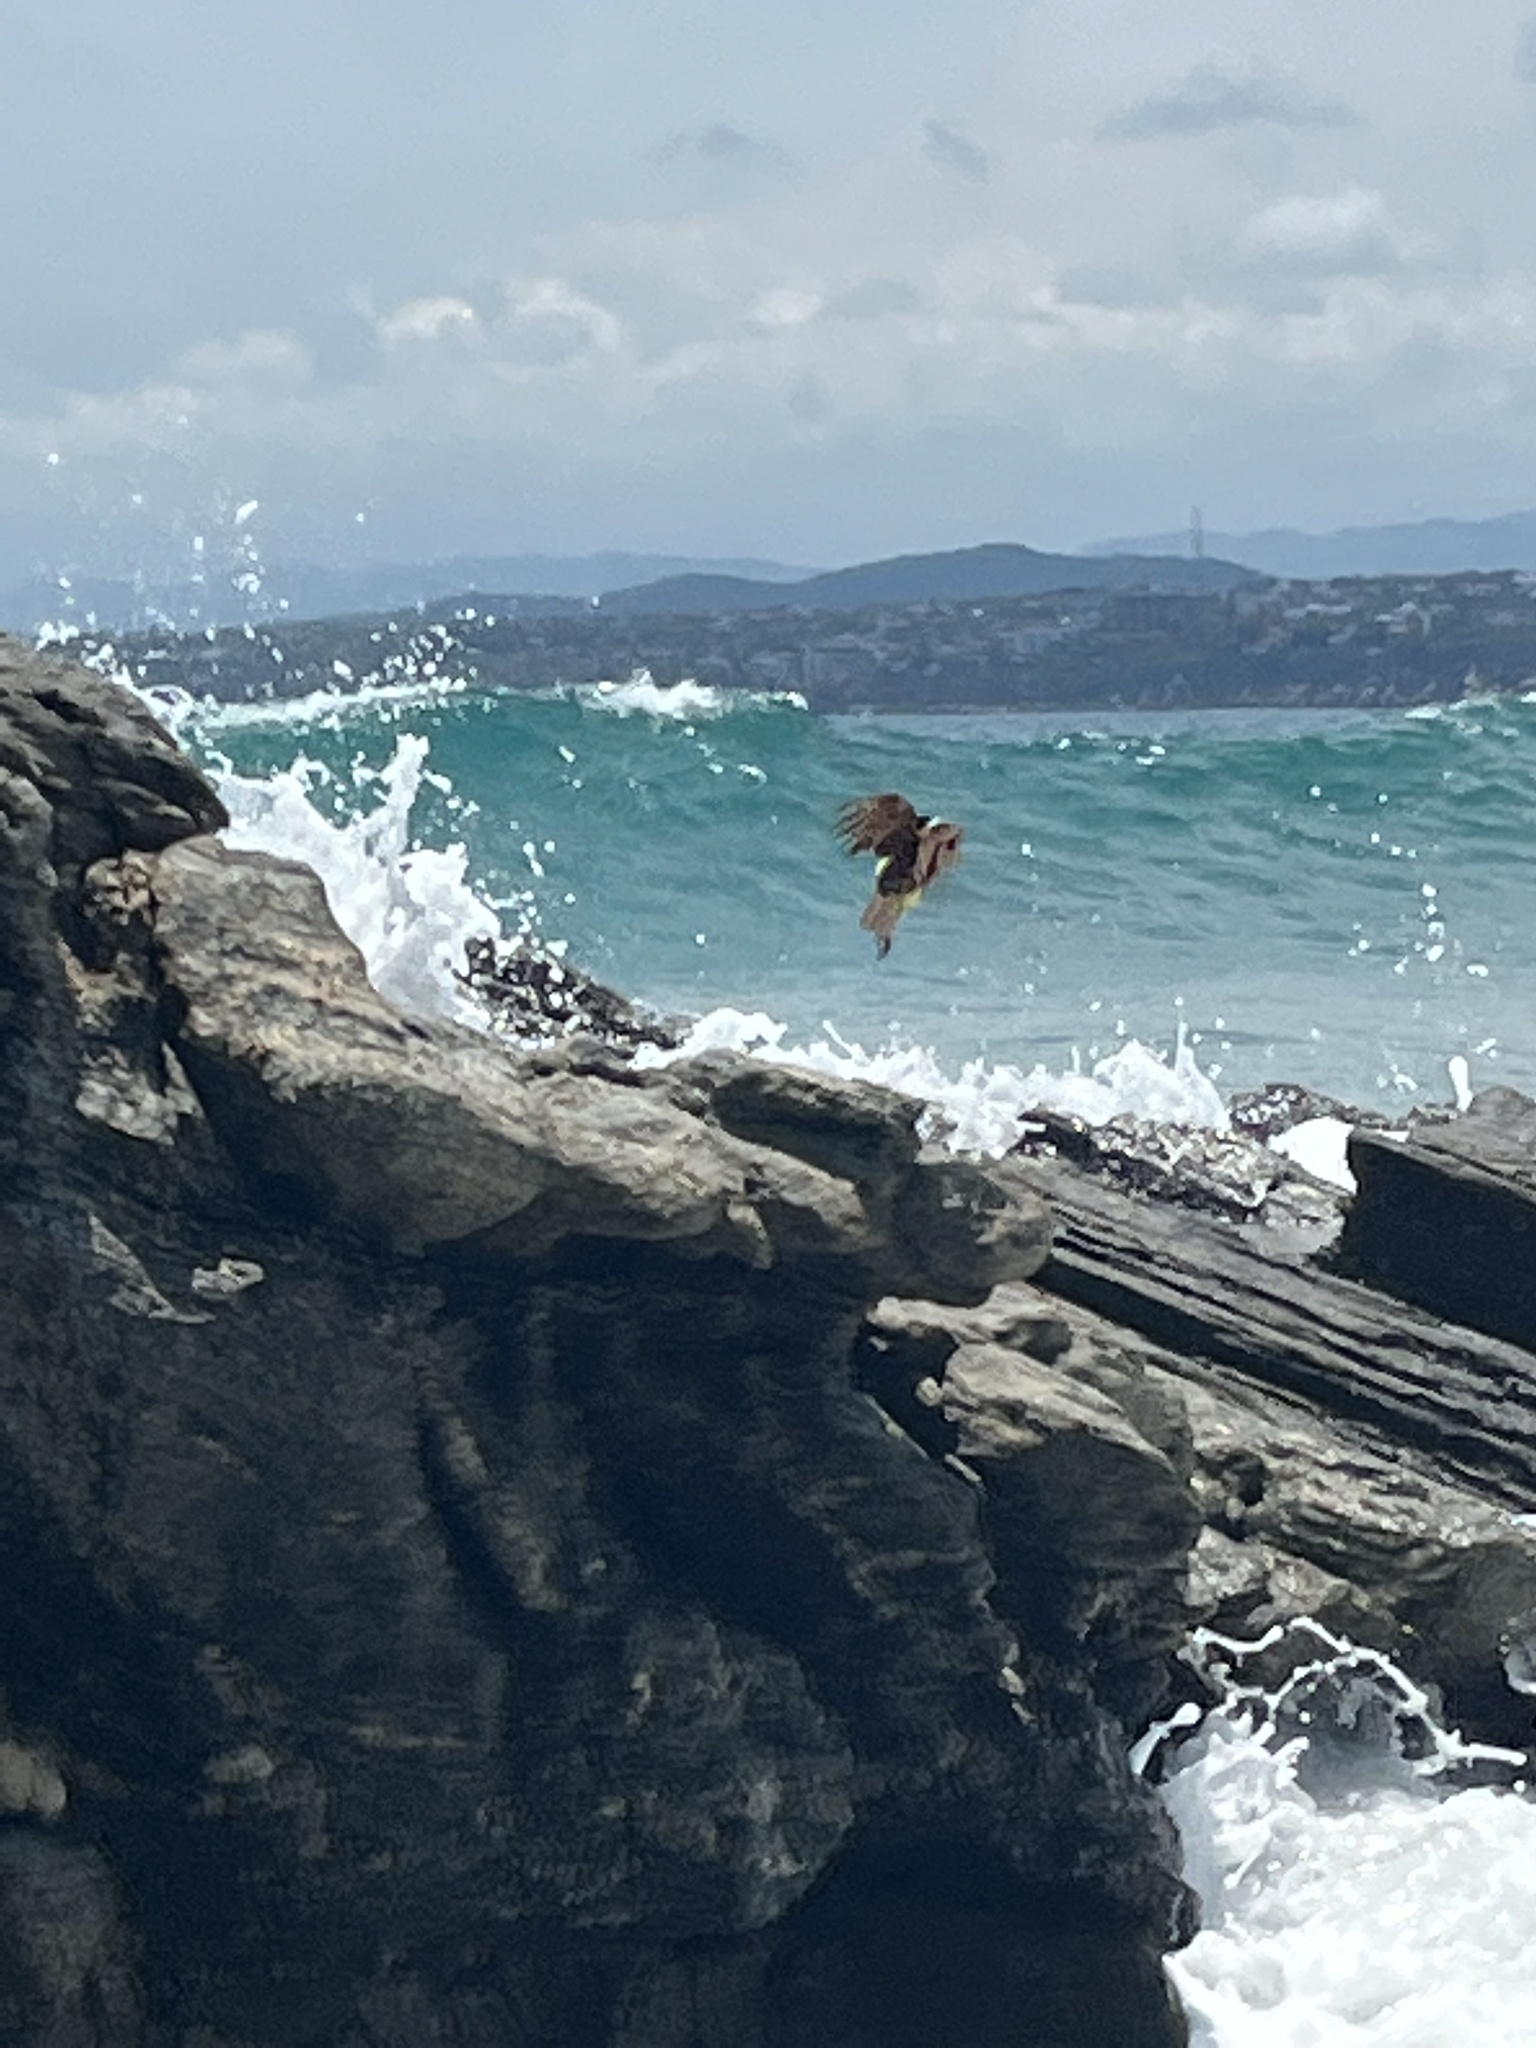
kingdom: Animalia
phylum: Chordata
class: Aves
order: Passeriformes
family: Tyrannidae
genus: Pitangus
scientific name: Pitangus sulphuratus
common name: Great kiskadee
